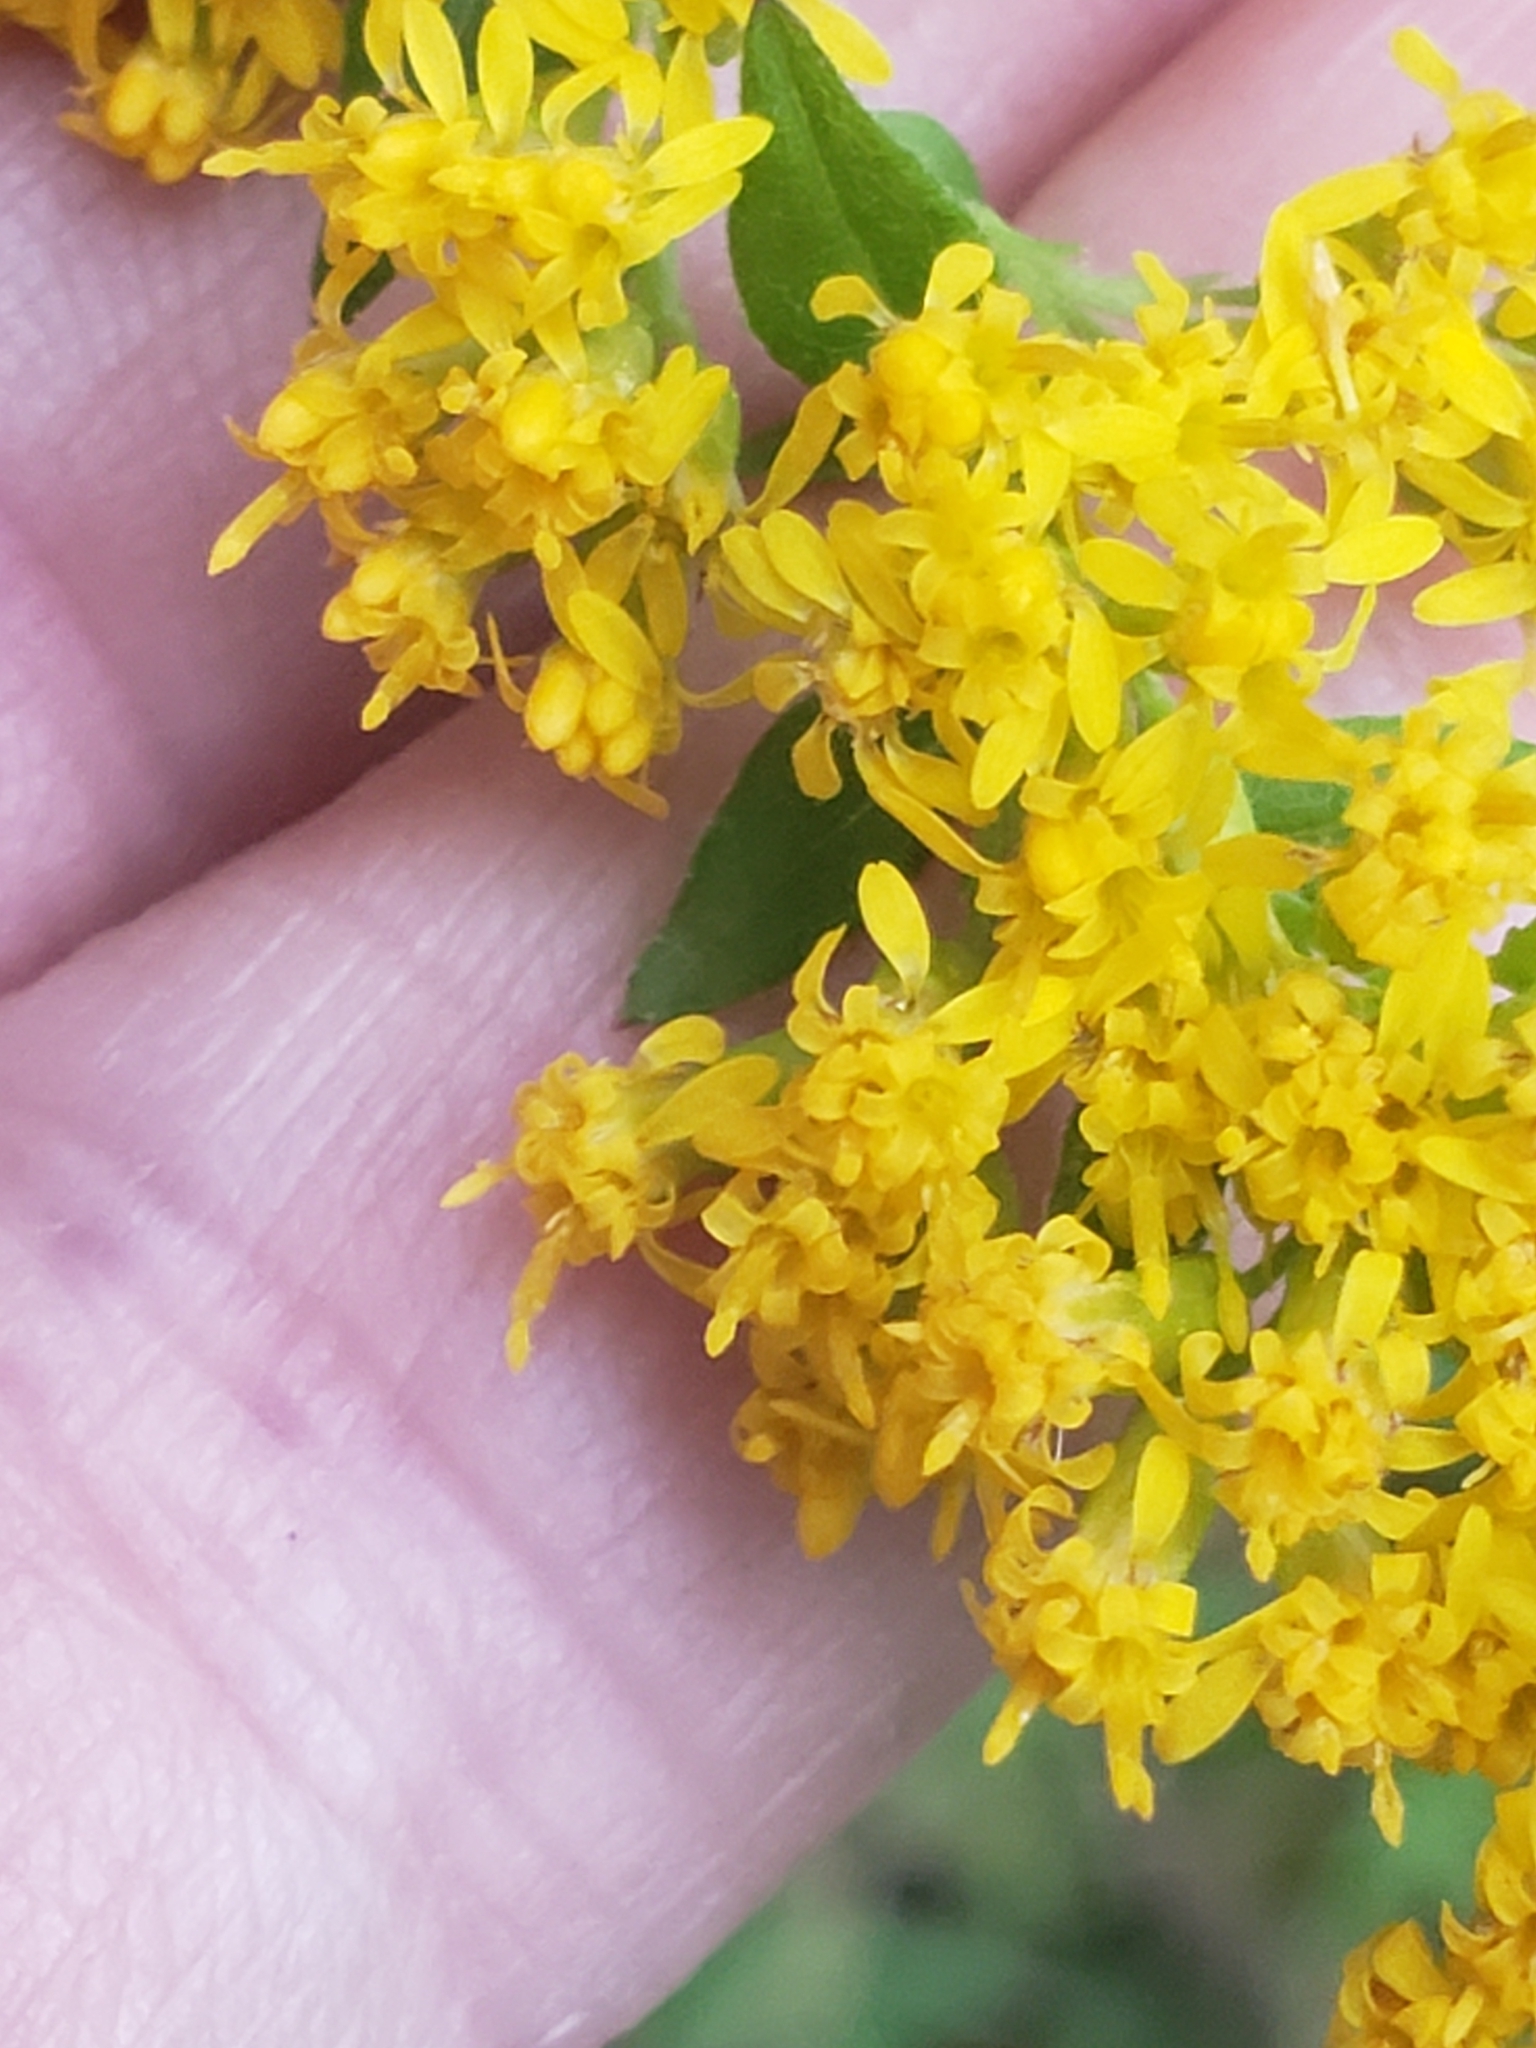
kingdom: Plantae
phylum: Tracheophyta
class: Magnoliopsida
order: Asterales
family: Asteraceae
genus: Solidago
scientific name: Solidago rugosa
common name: Rough-stemmed goldenrod
